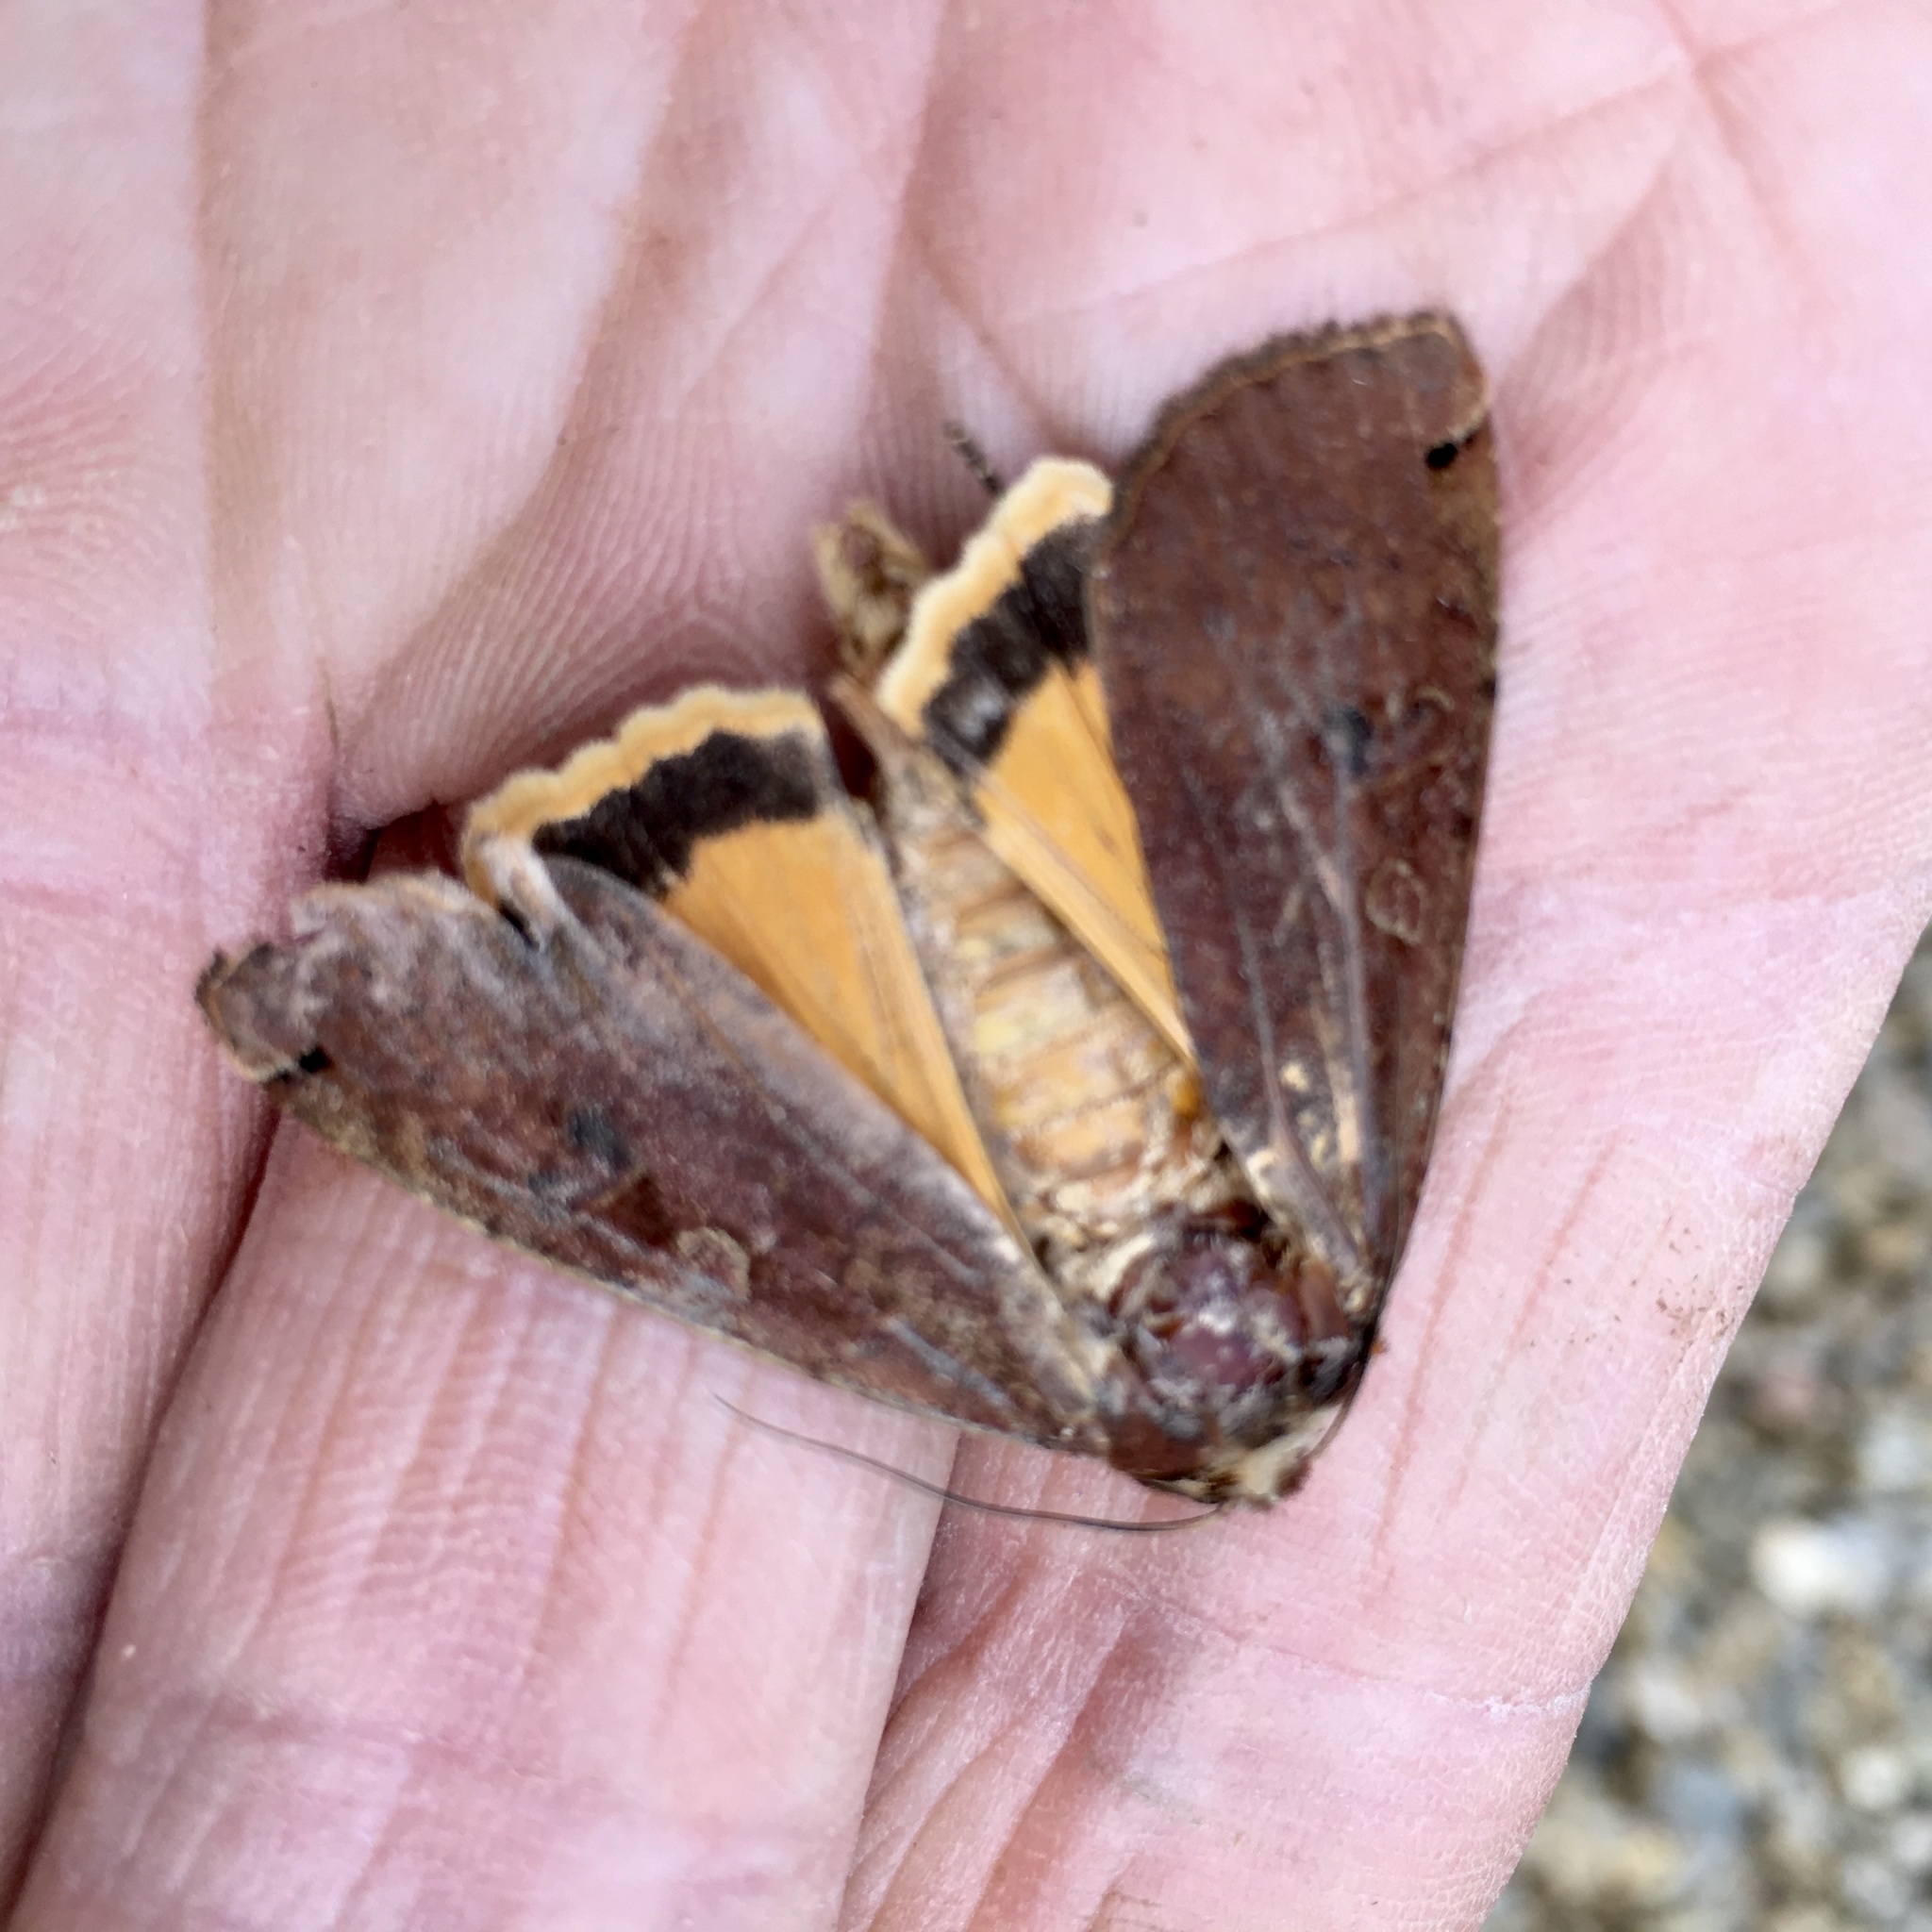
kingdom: Animalia
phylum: Arthropoda
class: Insecta
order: Lepidoptera
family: Noctuidae
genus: Noctua
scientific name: Noctua pronuba
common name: Large yellow underwing
